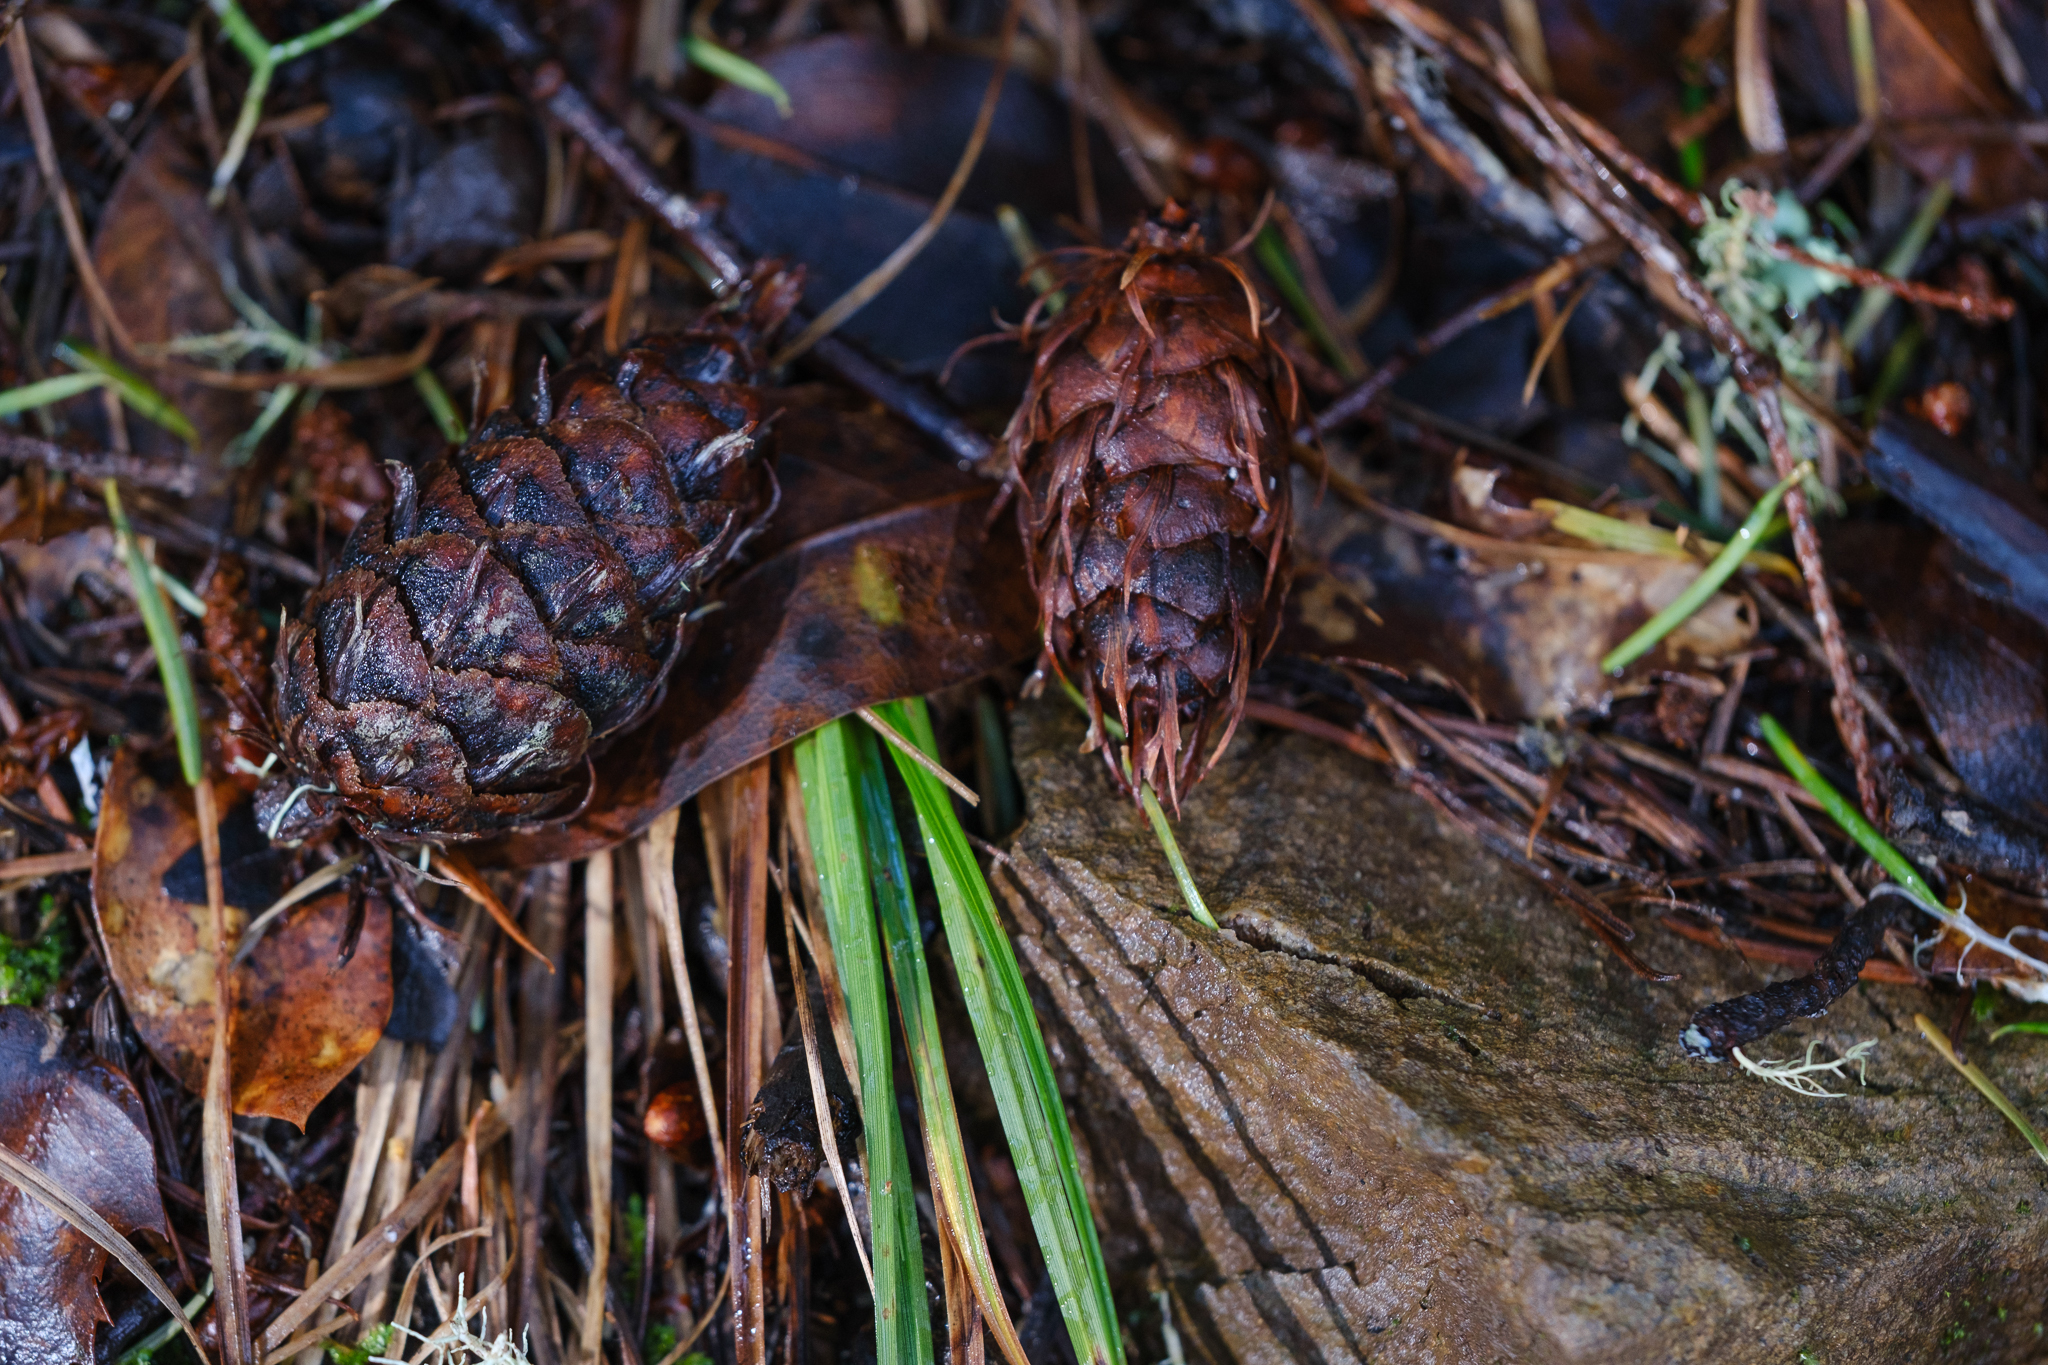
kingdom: Plantae
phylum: Tracheophyta
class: Pinopsida
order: Pinales
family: Pinaceae
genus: Pseudotsuga
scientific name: Pseudotsuga menziesii
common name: Douglas fir
